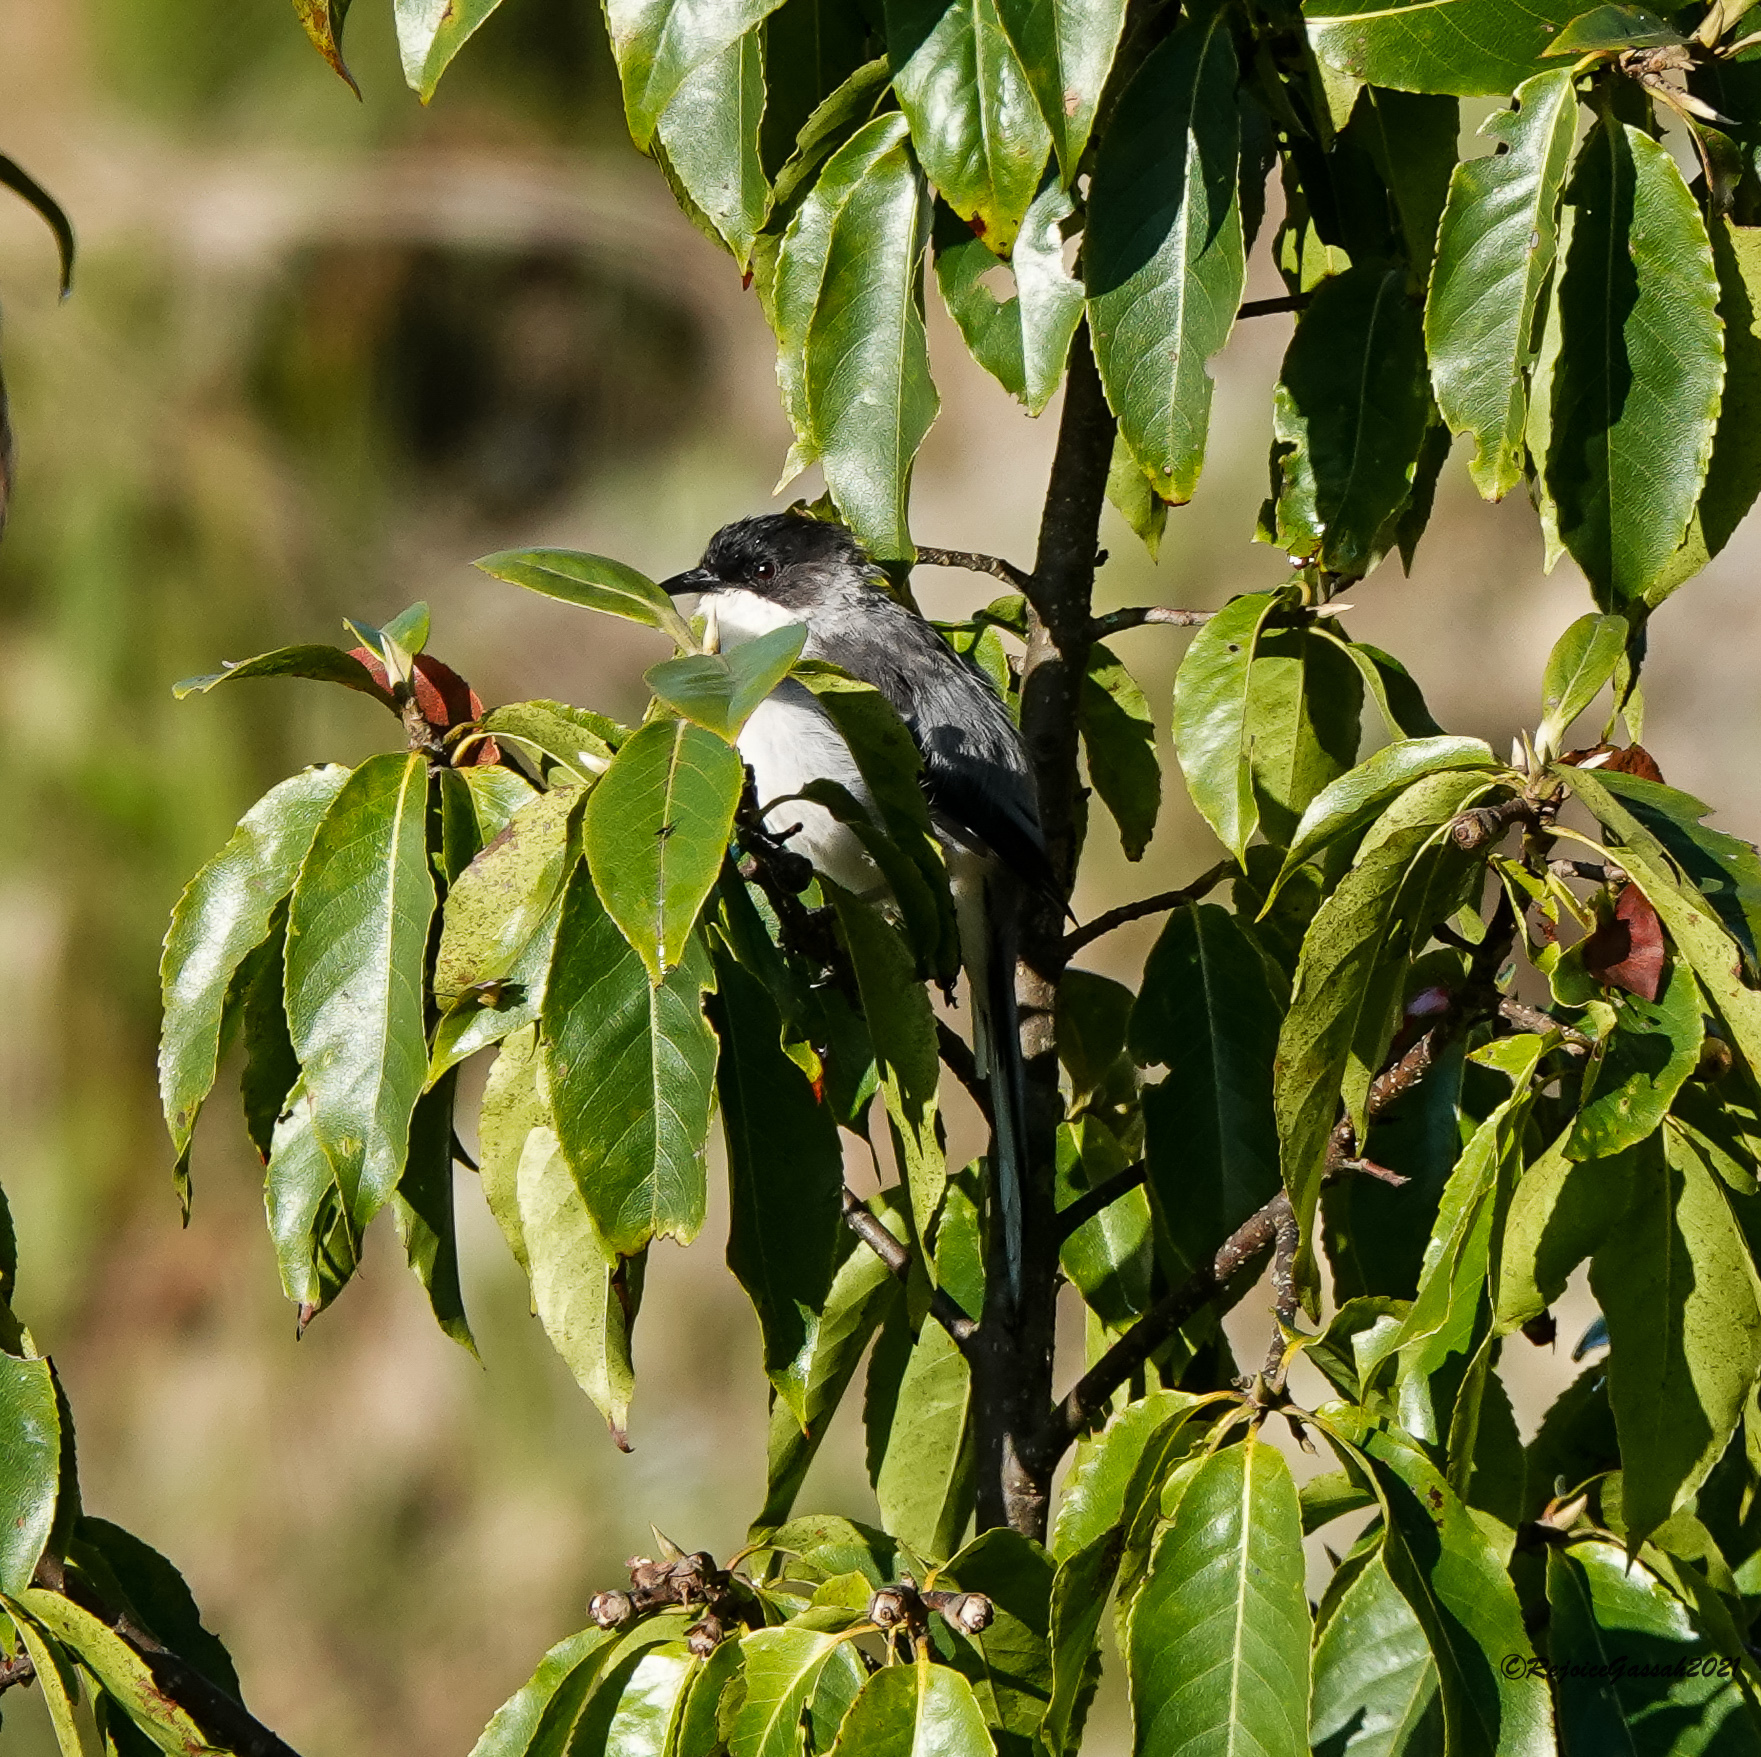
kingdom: Animalia
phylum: Chordata
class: Aves
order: Passeriformes
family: Leiothrichidae
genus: Heterophasia
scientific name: Heterophasia gracilis
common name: Grey sibia
